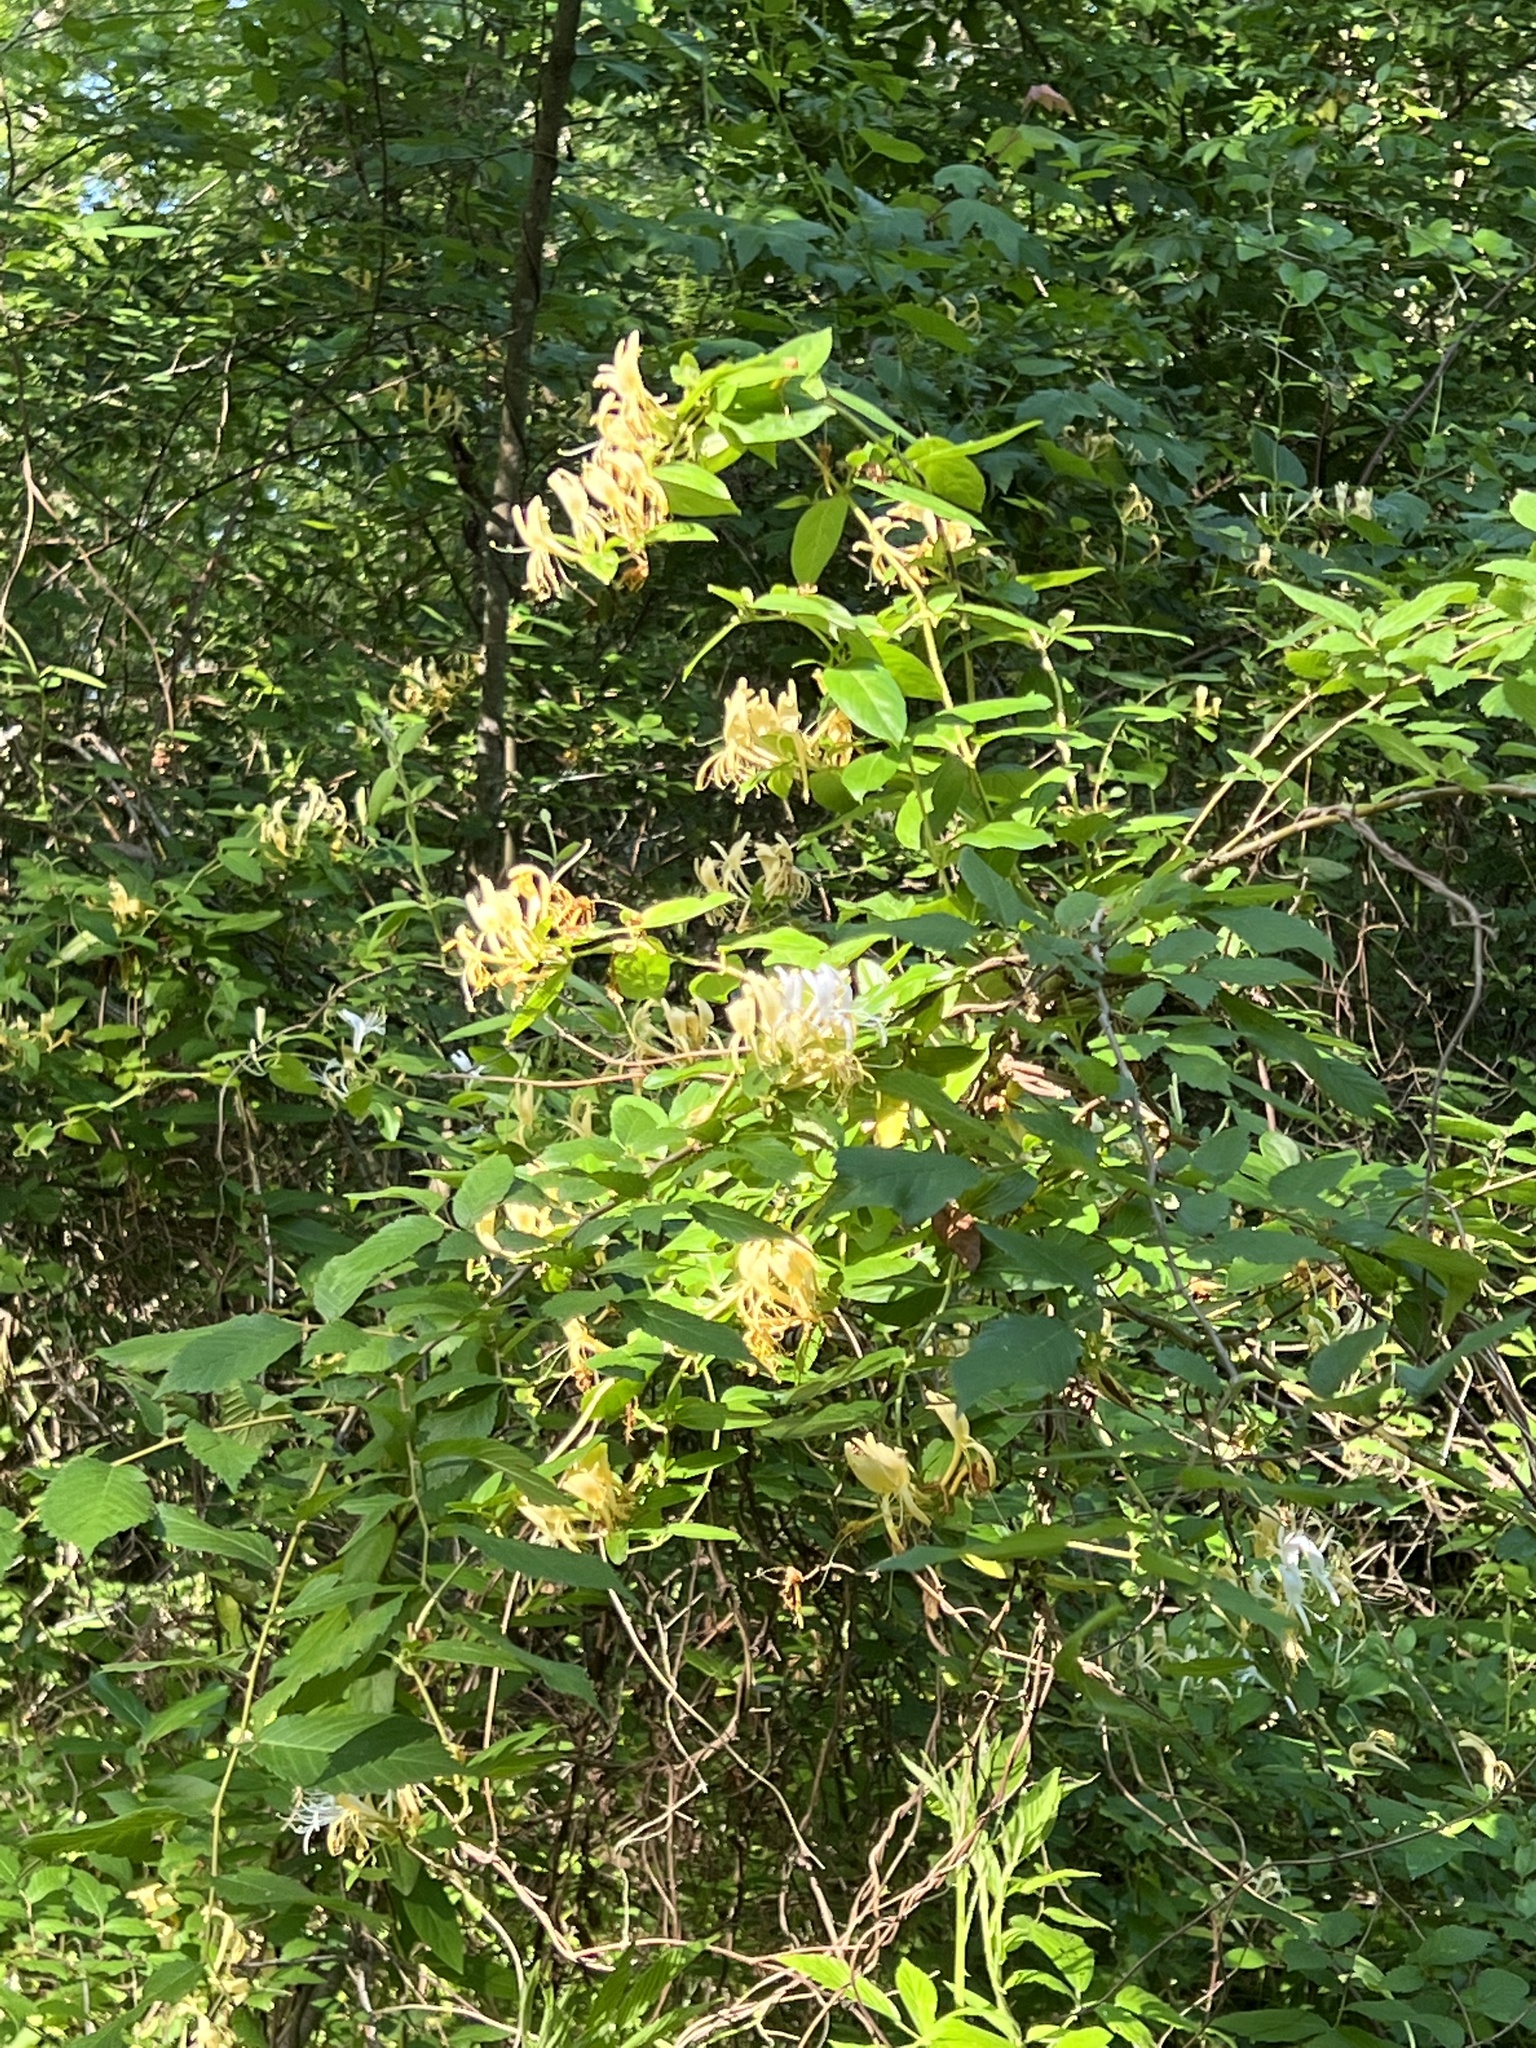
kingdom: Plantae
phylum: Tracheophyta
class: Magnoliopsida
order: Dipsacales
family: Caprifoliaceae
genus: Lonicera
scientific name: Lonicera japonica
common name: Japanese honeysuckle
